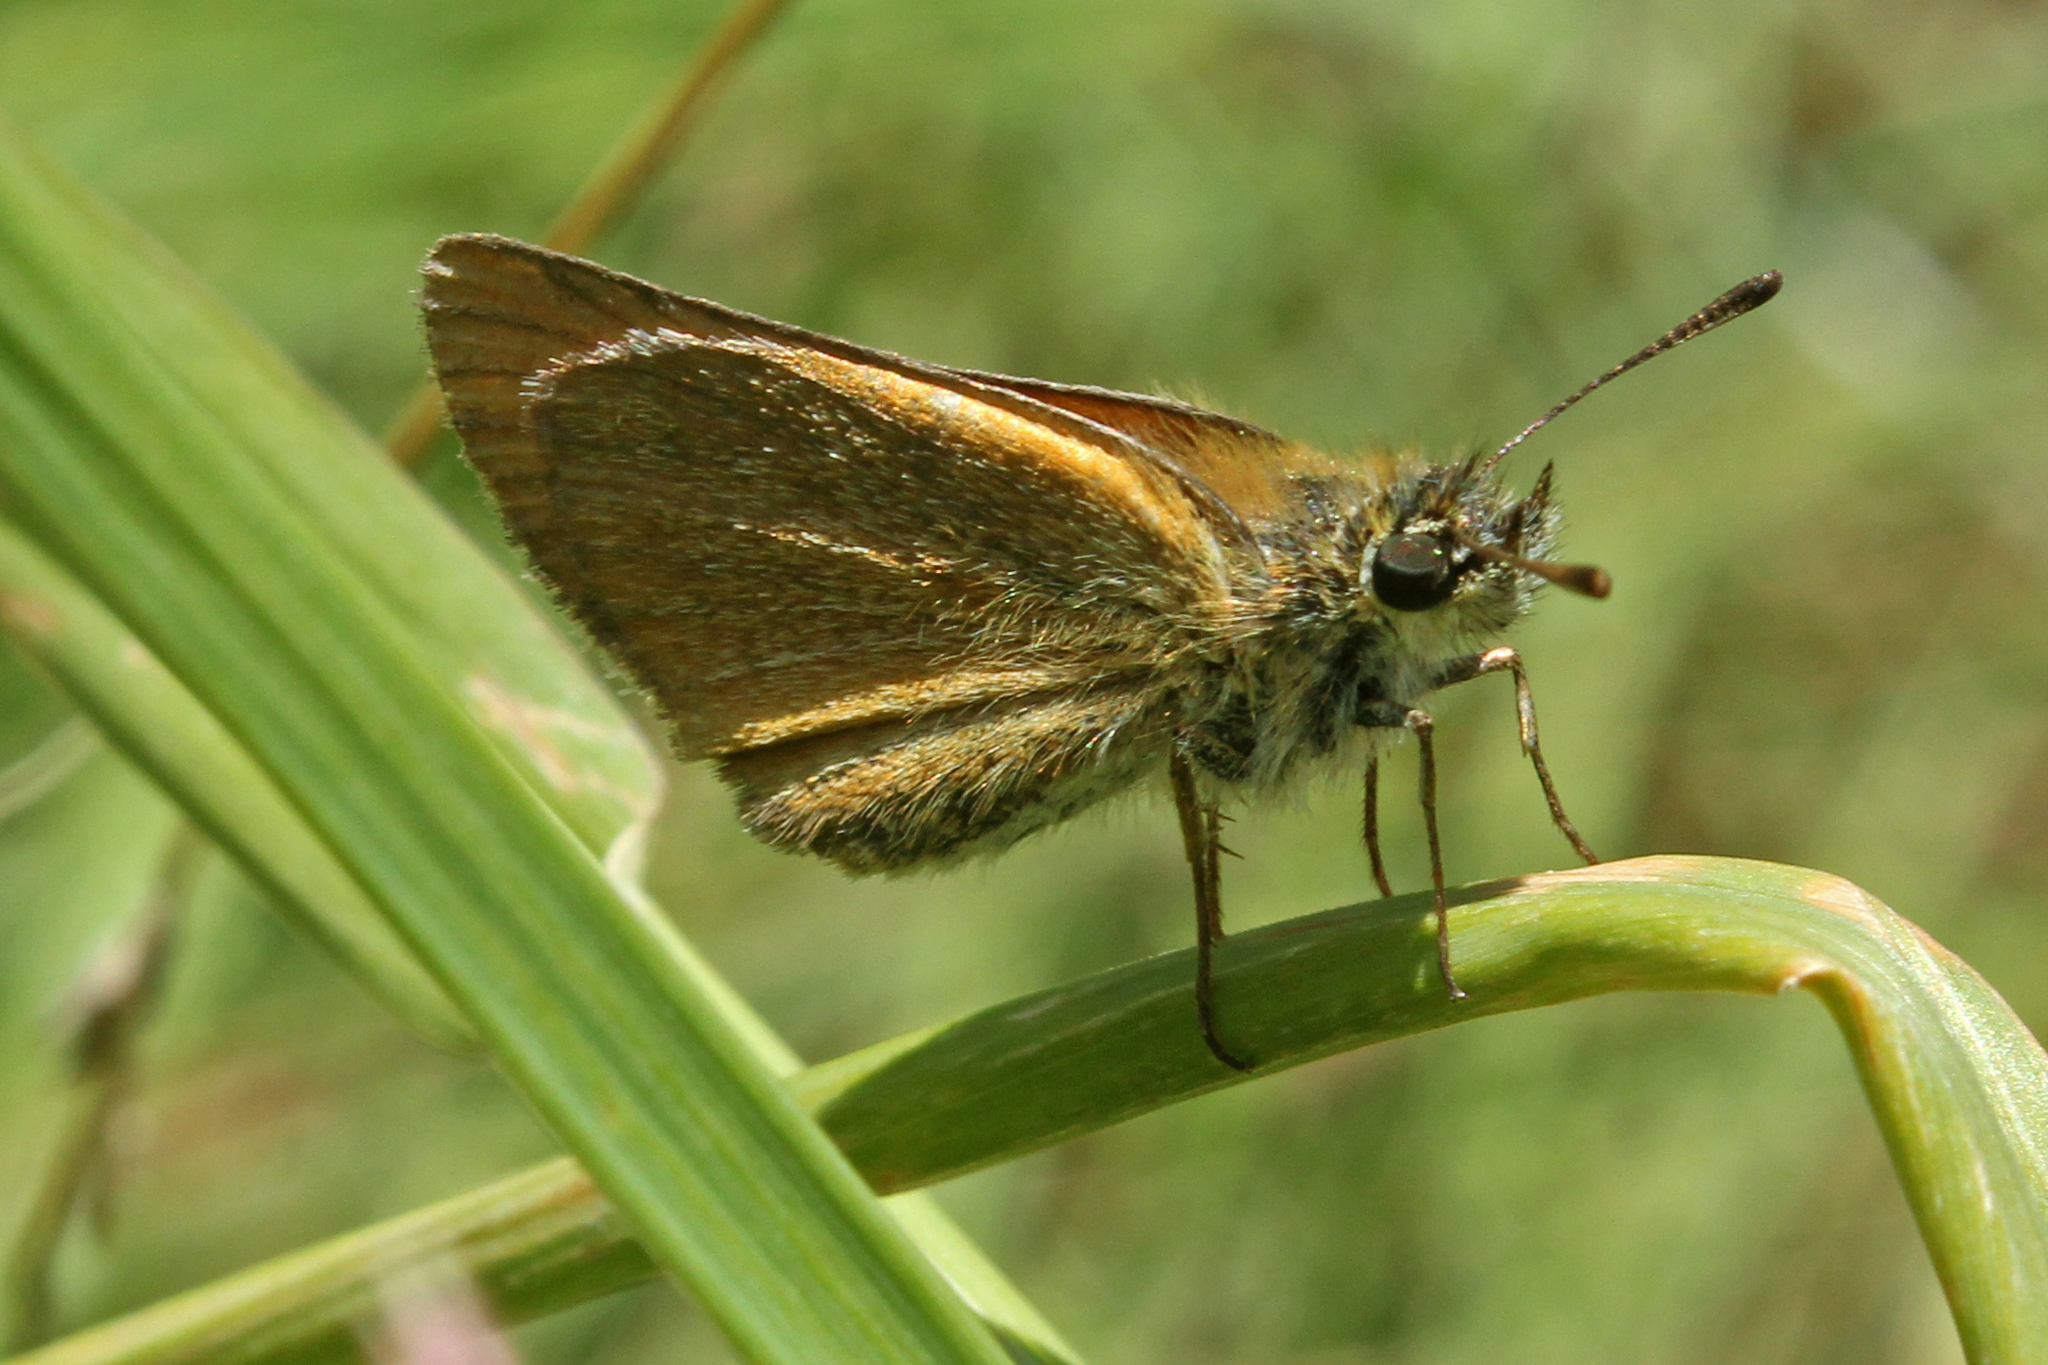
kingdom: Animalia
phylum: Arthropoda
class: Insecta
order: Lepidoptera
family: Hesperiidae
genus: Thymelicus
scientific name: Thymelicus lineola
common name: Essex skipper
